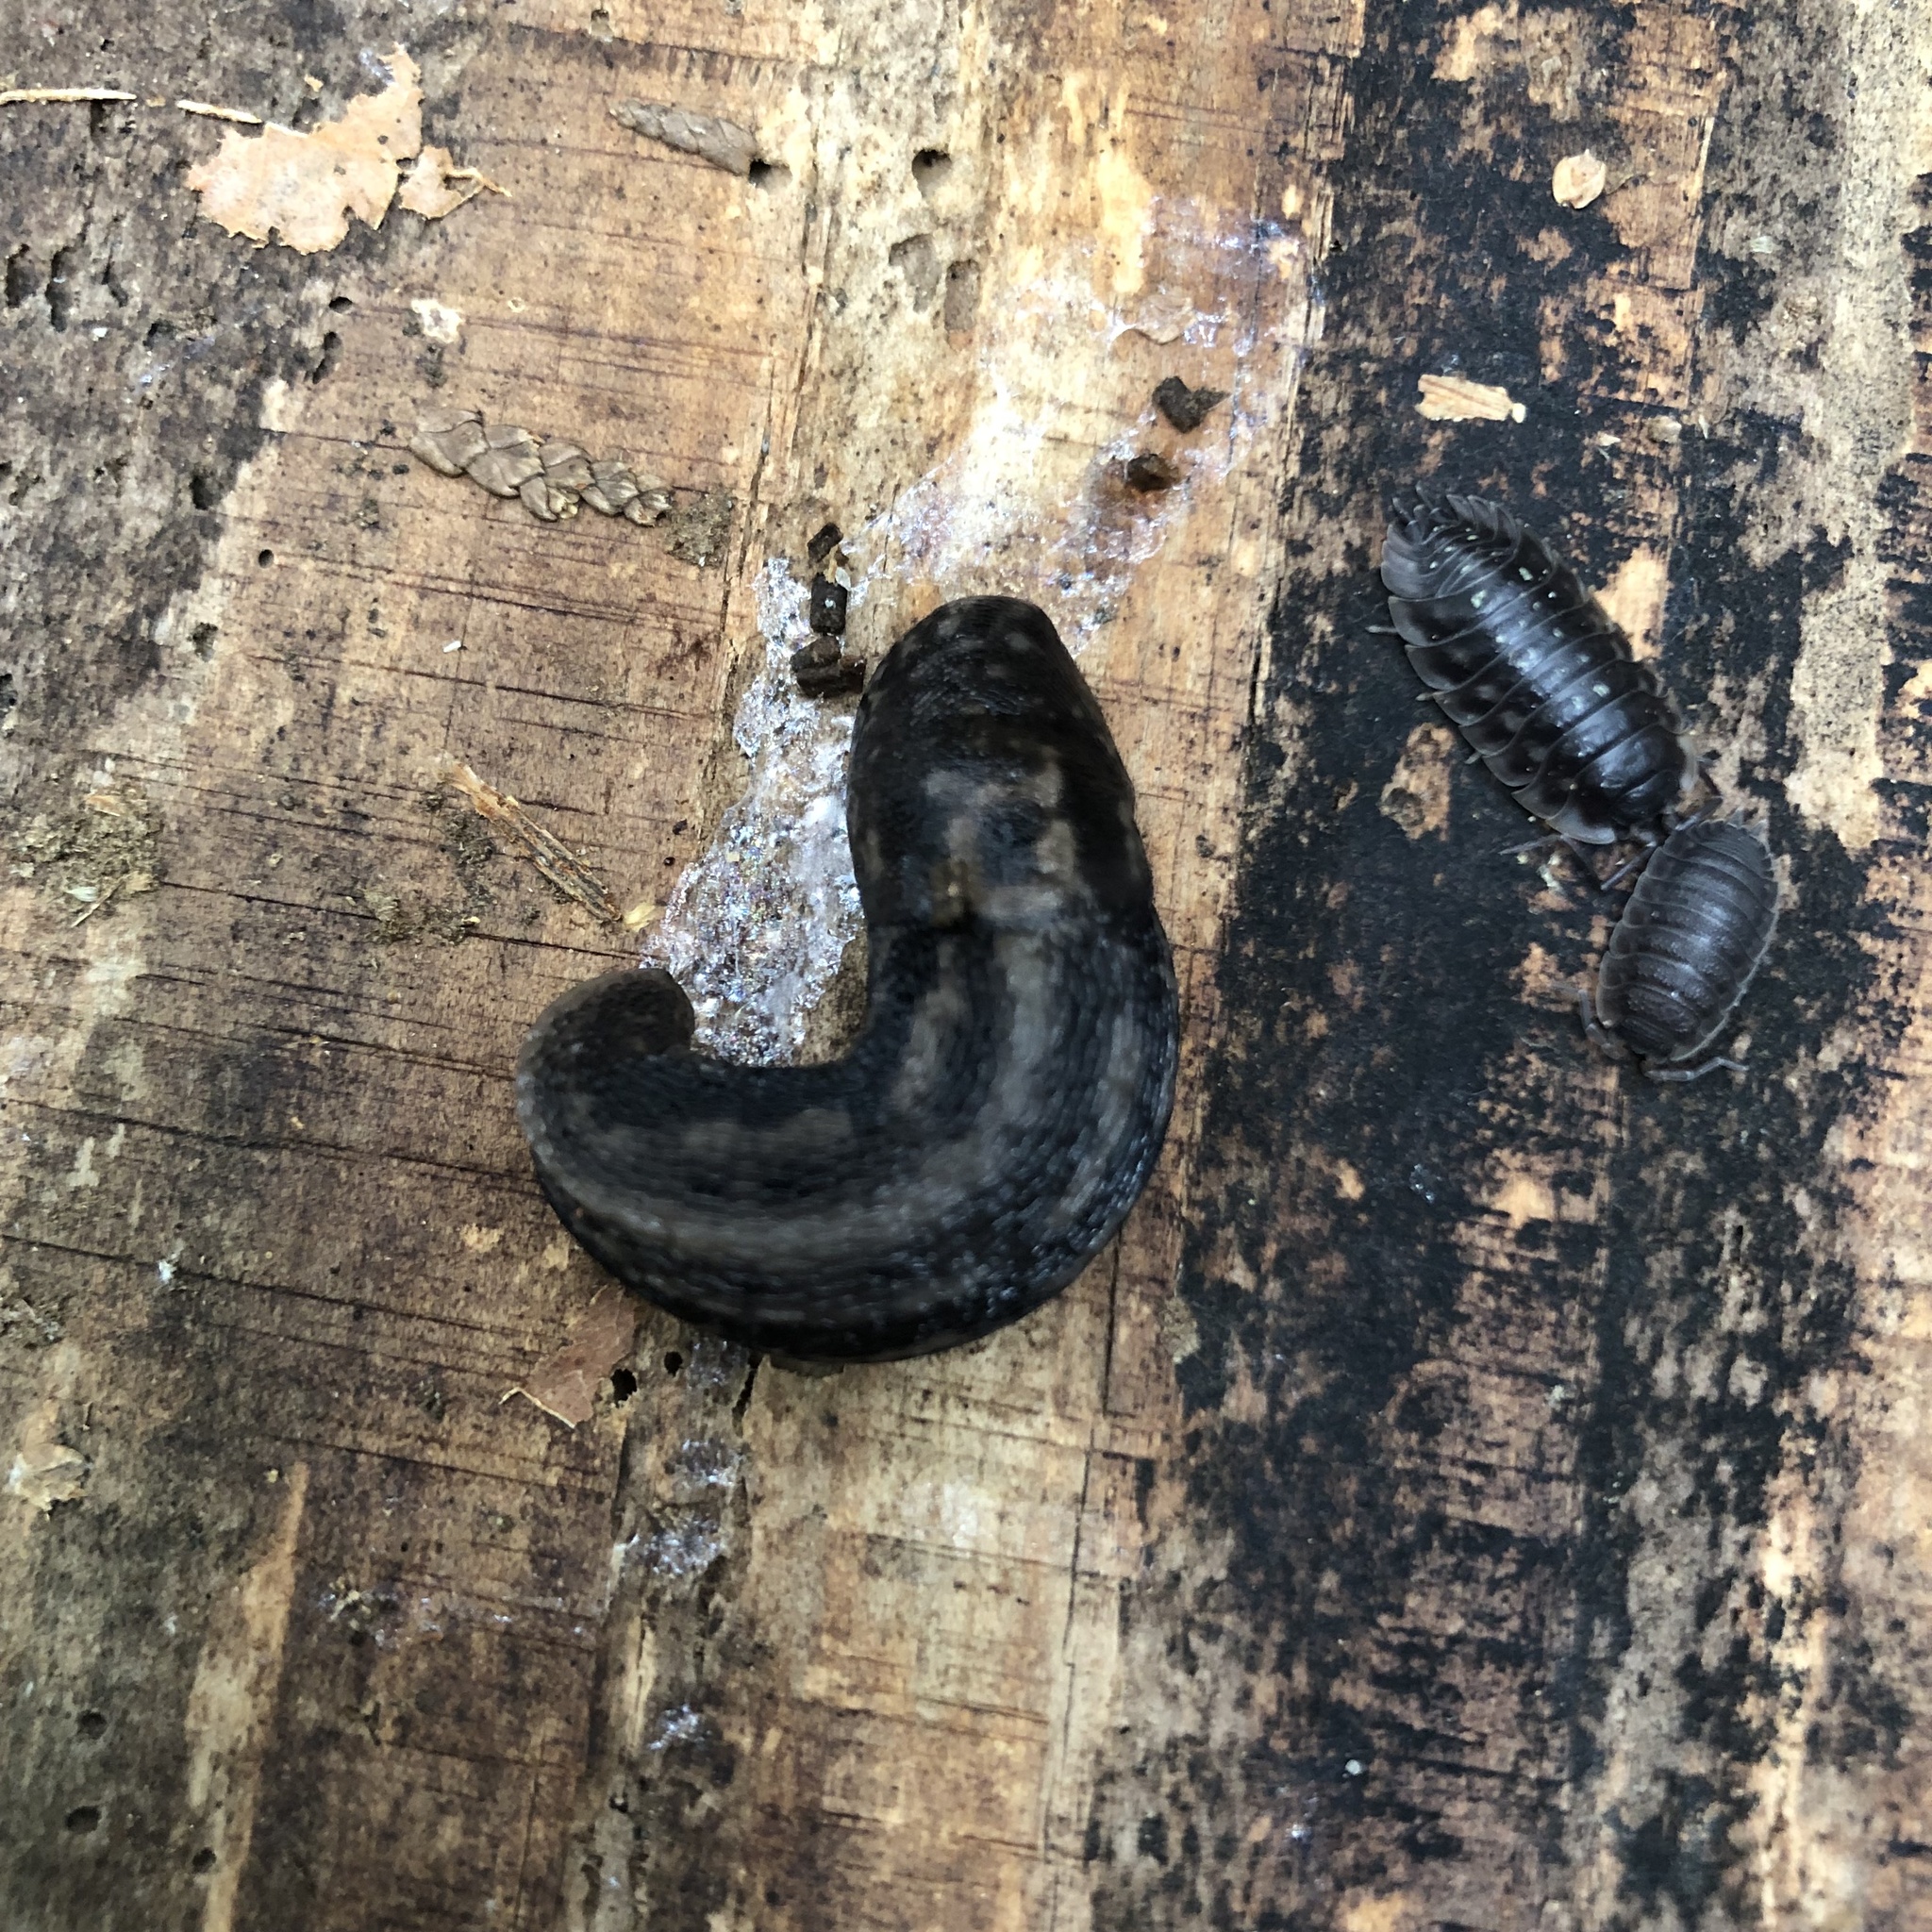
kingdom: Animalia
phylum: Mollusca
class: Gastropoda
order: Stylommatophora
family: Limacidae
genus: Limax
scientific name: Limax maximus
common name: Great grey slug
